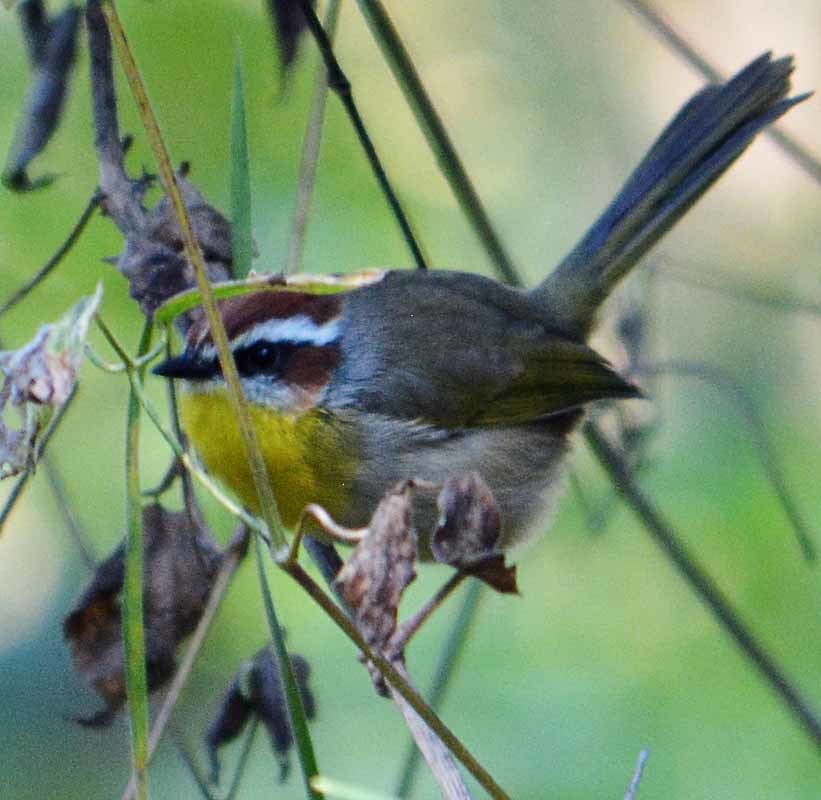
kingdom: Animalia
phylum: Chordata
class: Aves
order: Passeriformes
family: Parulidae
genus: Basileuterus
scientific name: Basileuterus rufifrons
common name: Rufous-capped warbler
